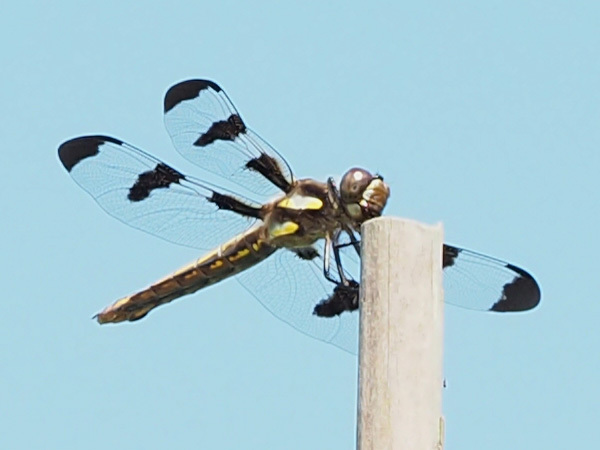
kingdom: Animalia
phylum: Arthropoda
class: Insecta
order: Odonata
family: Libellulidae
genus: Libellula
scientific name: Libellula pulchella
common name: Twelve-spotted skimmer
